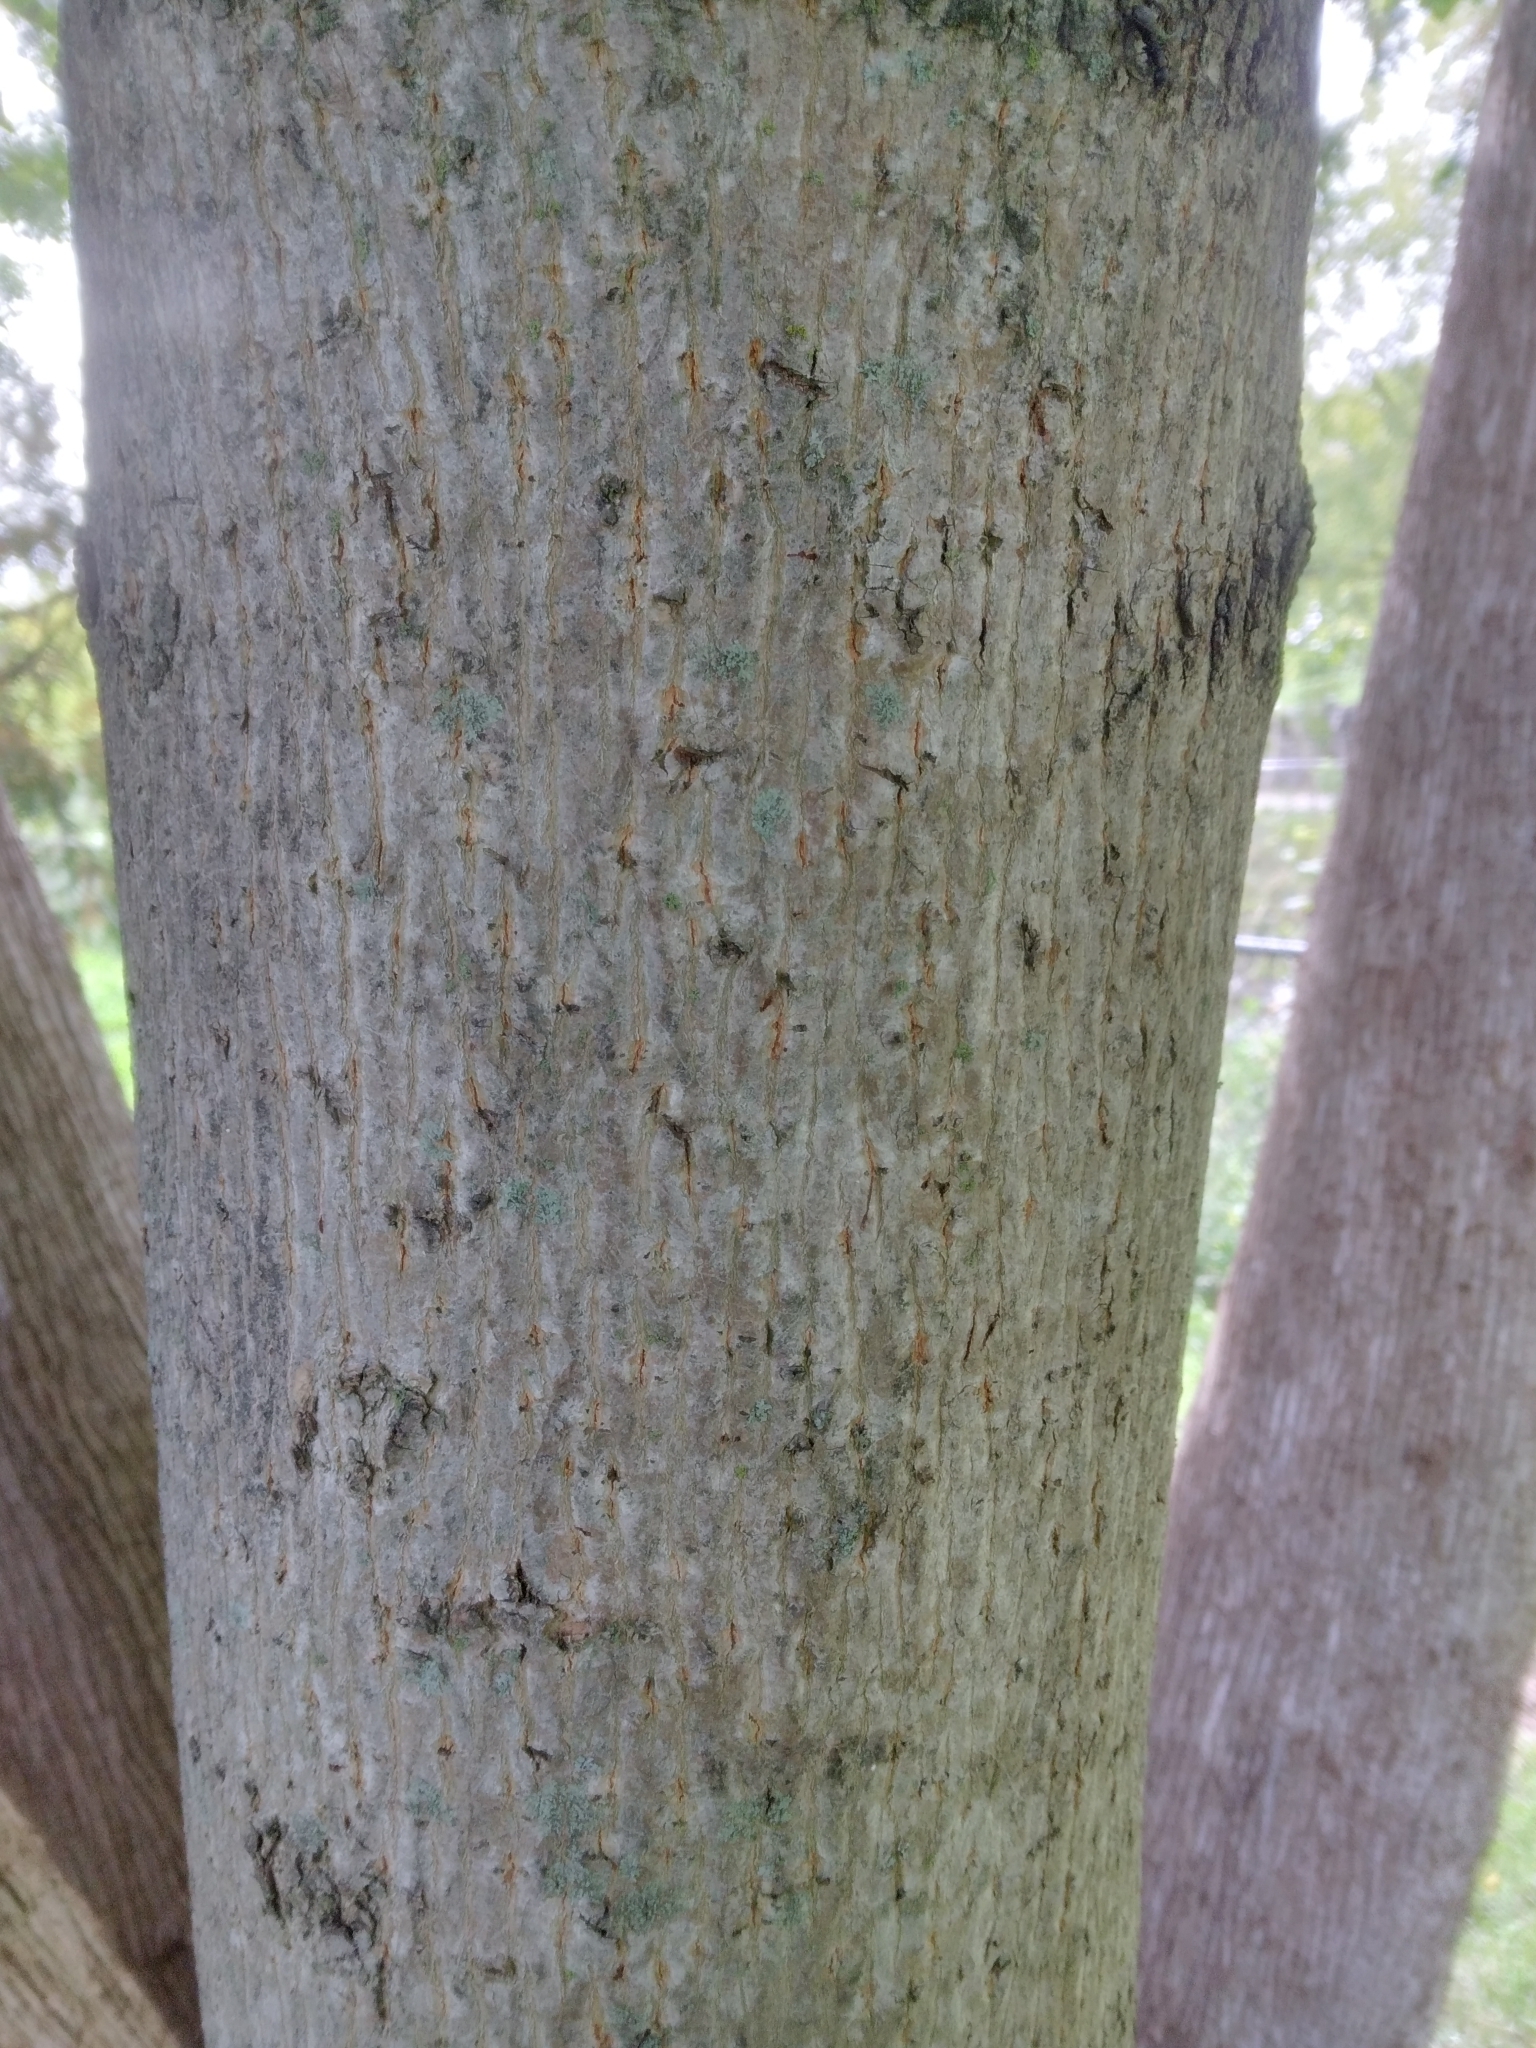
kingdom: Plantae
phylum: Tracheophyta
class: Magnoliopsida
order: Sapindales
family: Sapindaceae
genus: Acer
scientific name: Acer platanoides
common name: Norway maple
